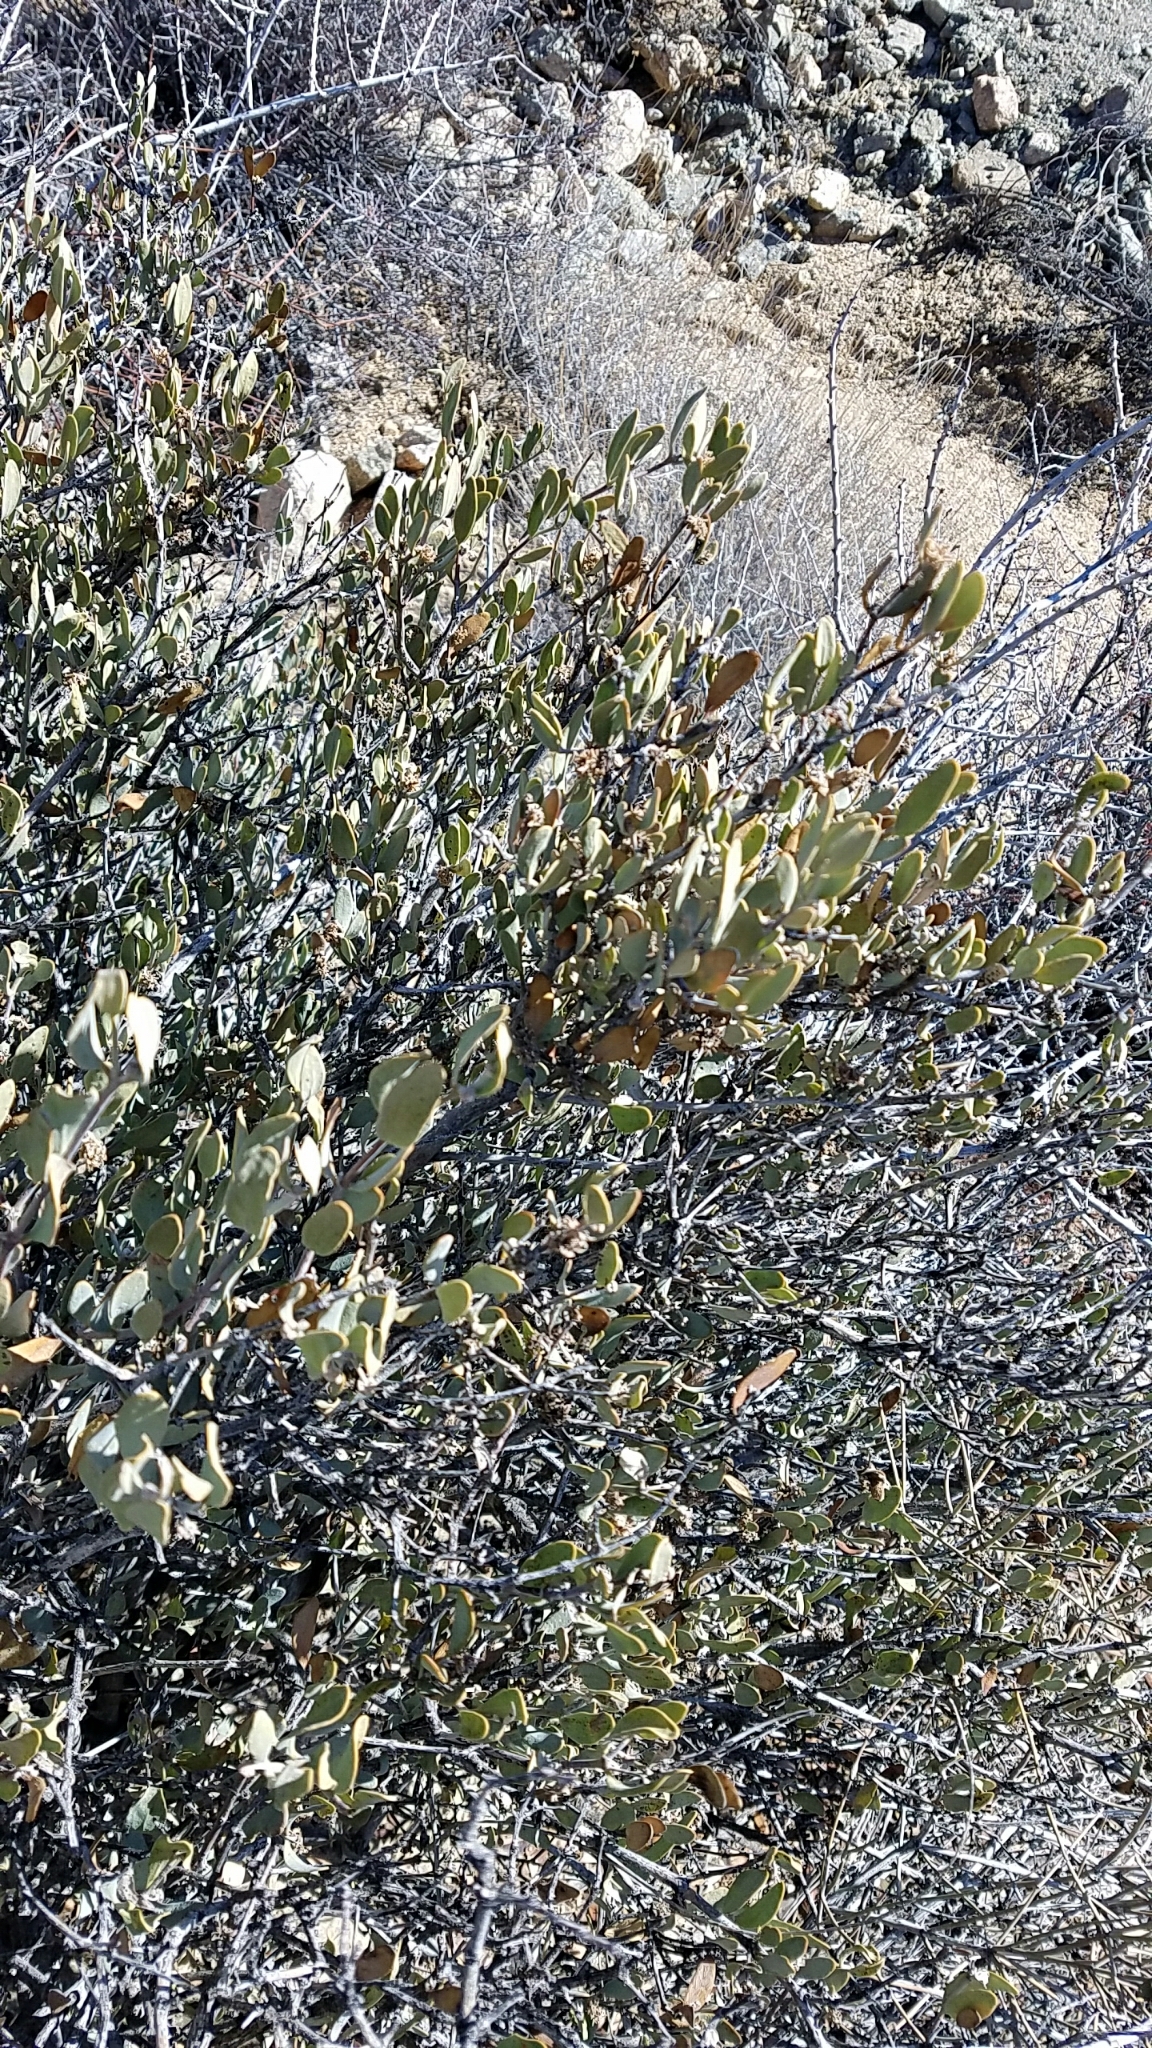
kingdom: Plantae
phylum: Tracheophyta
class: Magnoliopsida
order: Caryophyllales
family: Simmondsiaceae
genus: Simmondsia
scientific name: Simmondsia chinensis
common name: Jojoba
